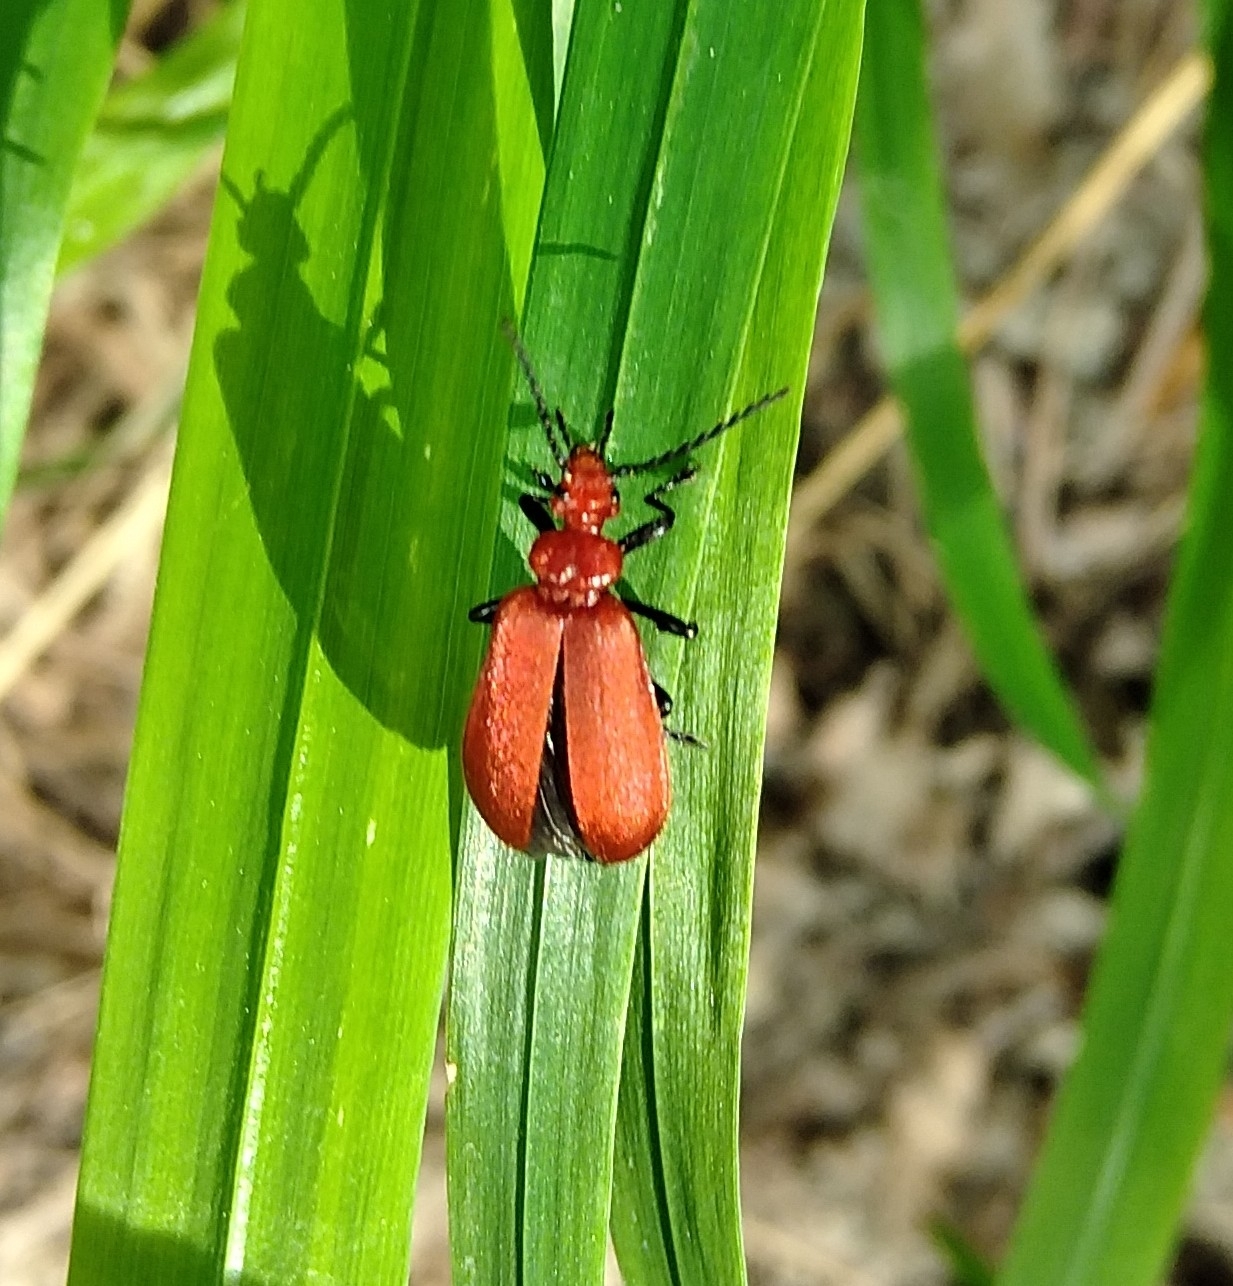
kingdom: Animalia
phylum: Arthropoda
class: Insecta
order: Coleoptera
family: Pyrochroidae
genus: Pyrochroa
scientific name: Pyrochroa serraticornis
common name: Red-headed cardinal beetle
